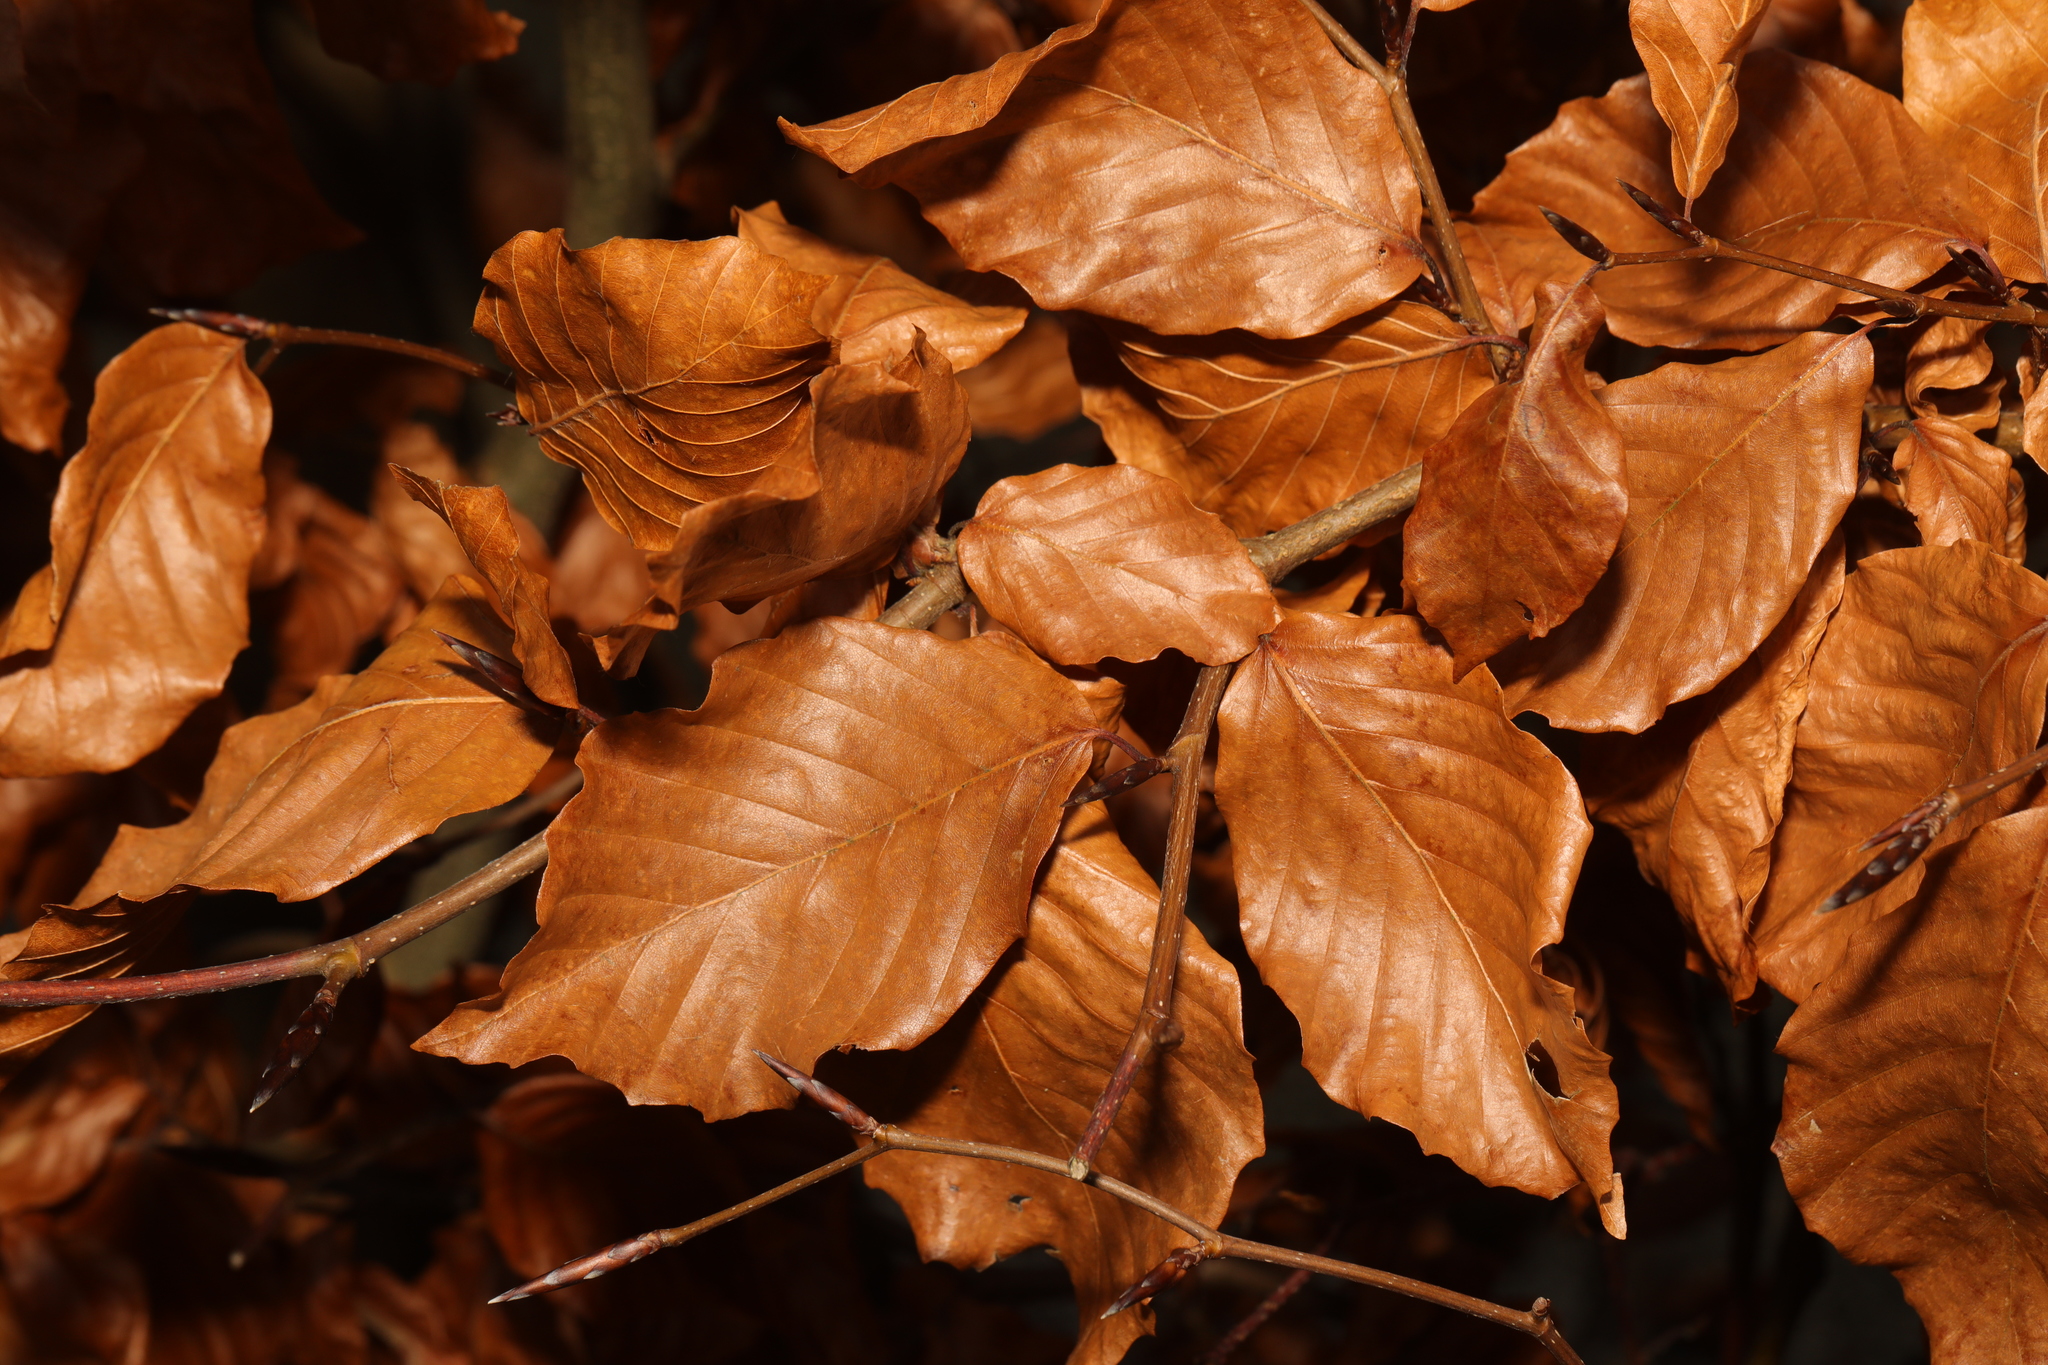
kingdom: Plantae
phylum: Tracheophyta
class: Magnoliopsida
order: Fagales
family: Fagaceae
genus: Fagus
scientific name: Fagus sylvatica
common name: Beech
